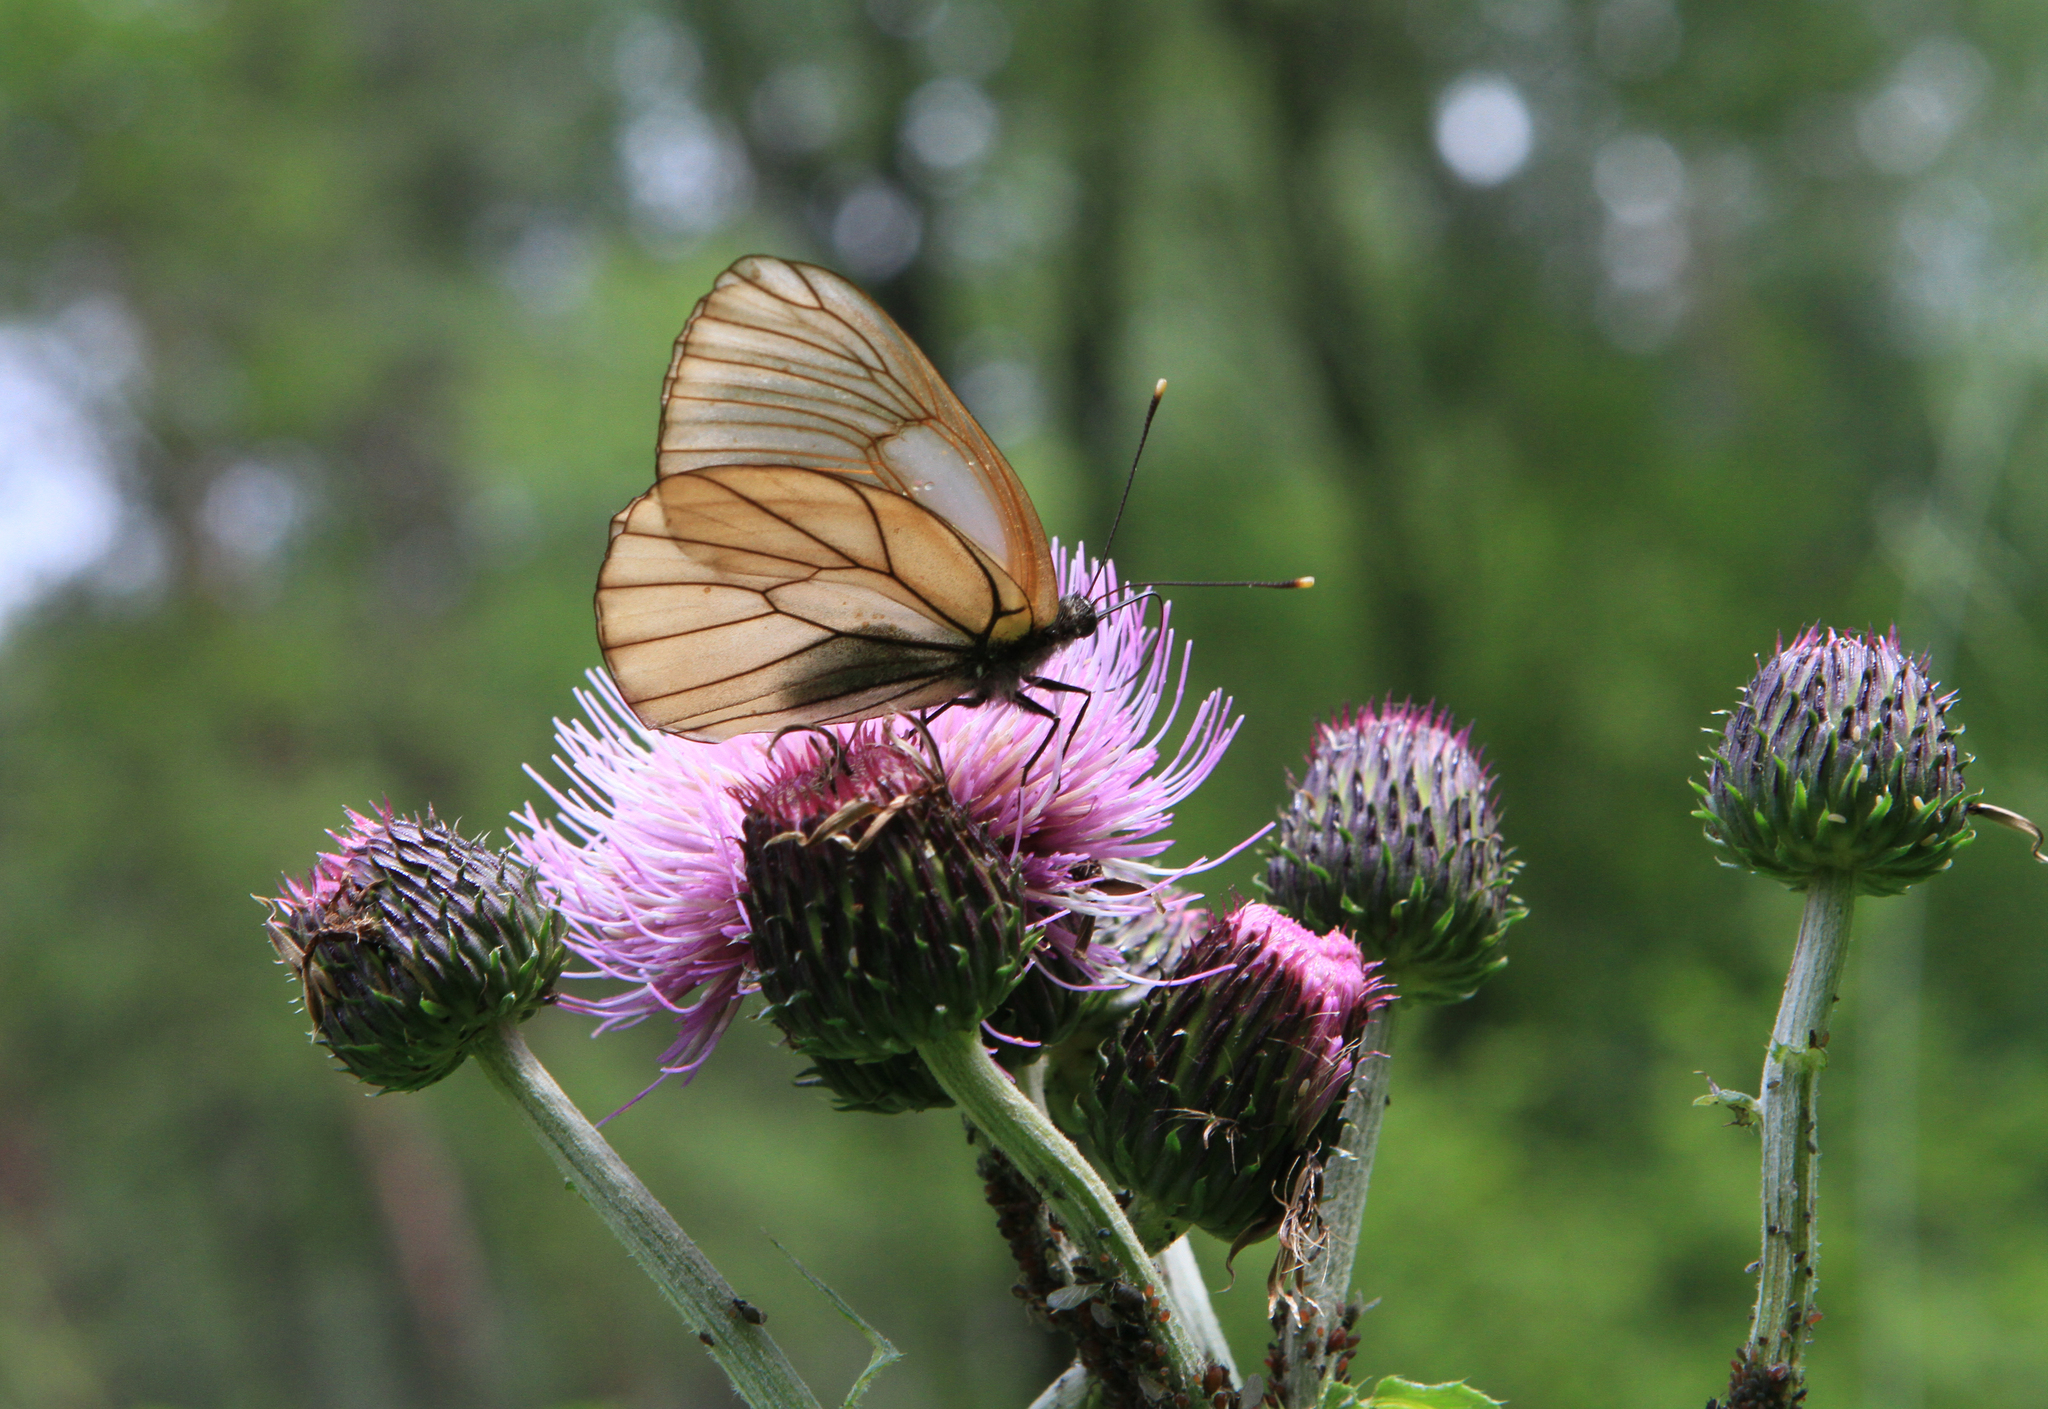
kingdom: Animalia
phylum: Arthropoda
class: Insecta
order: Lepidoptera
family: Pieridae
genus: Aporia
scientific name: Aporia crataegi
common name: Black-veined white
